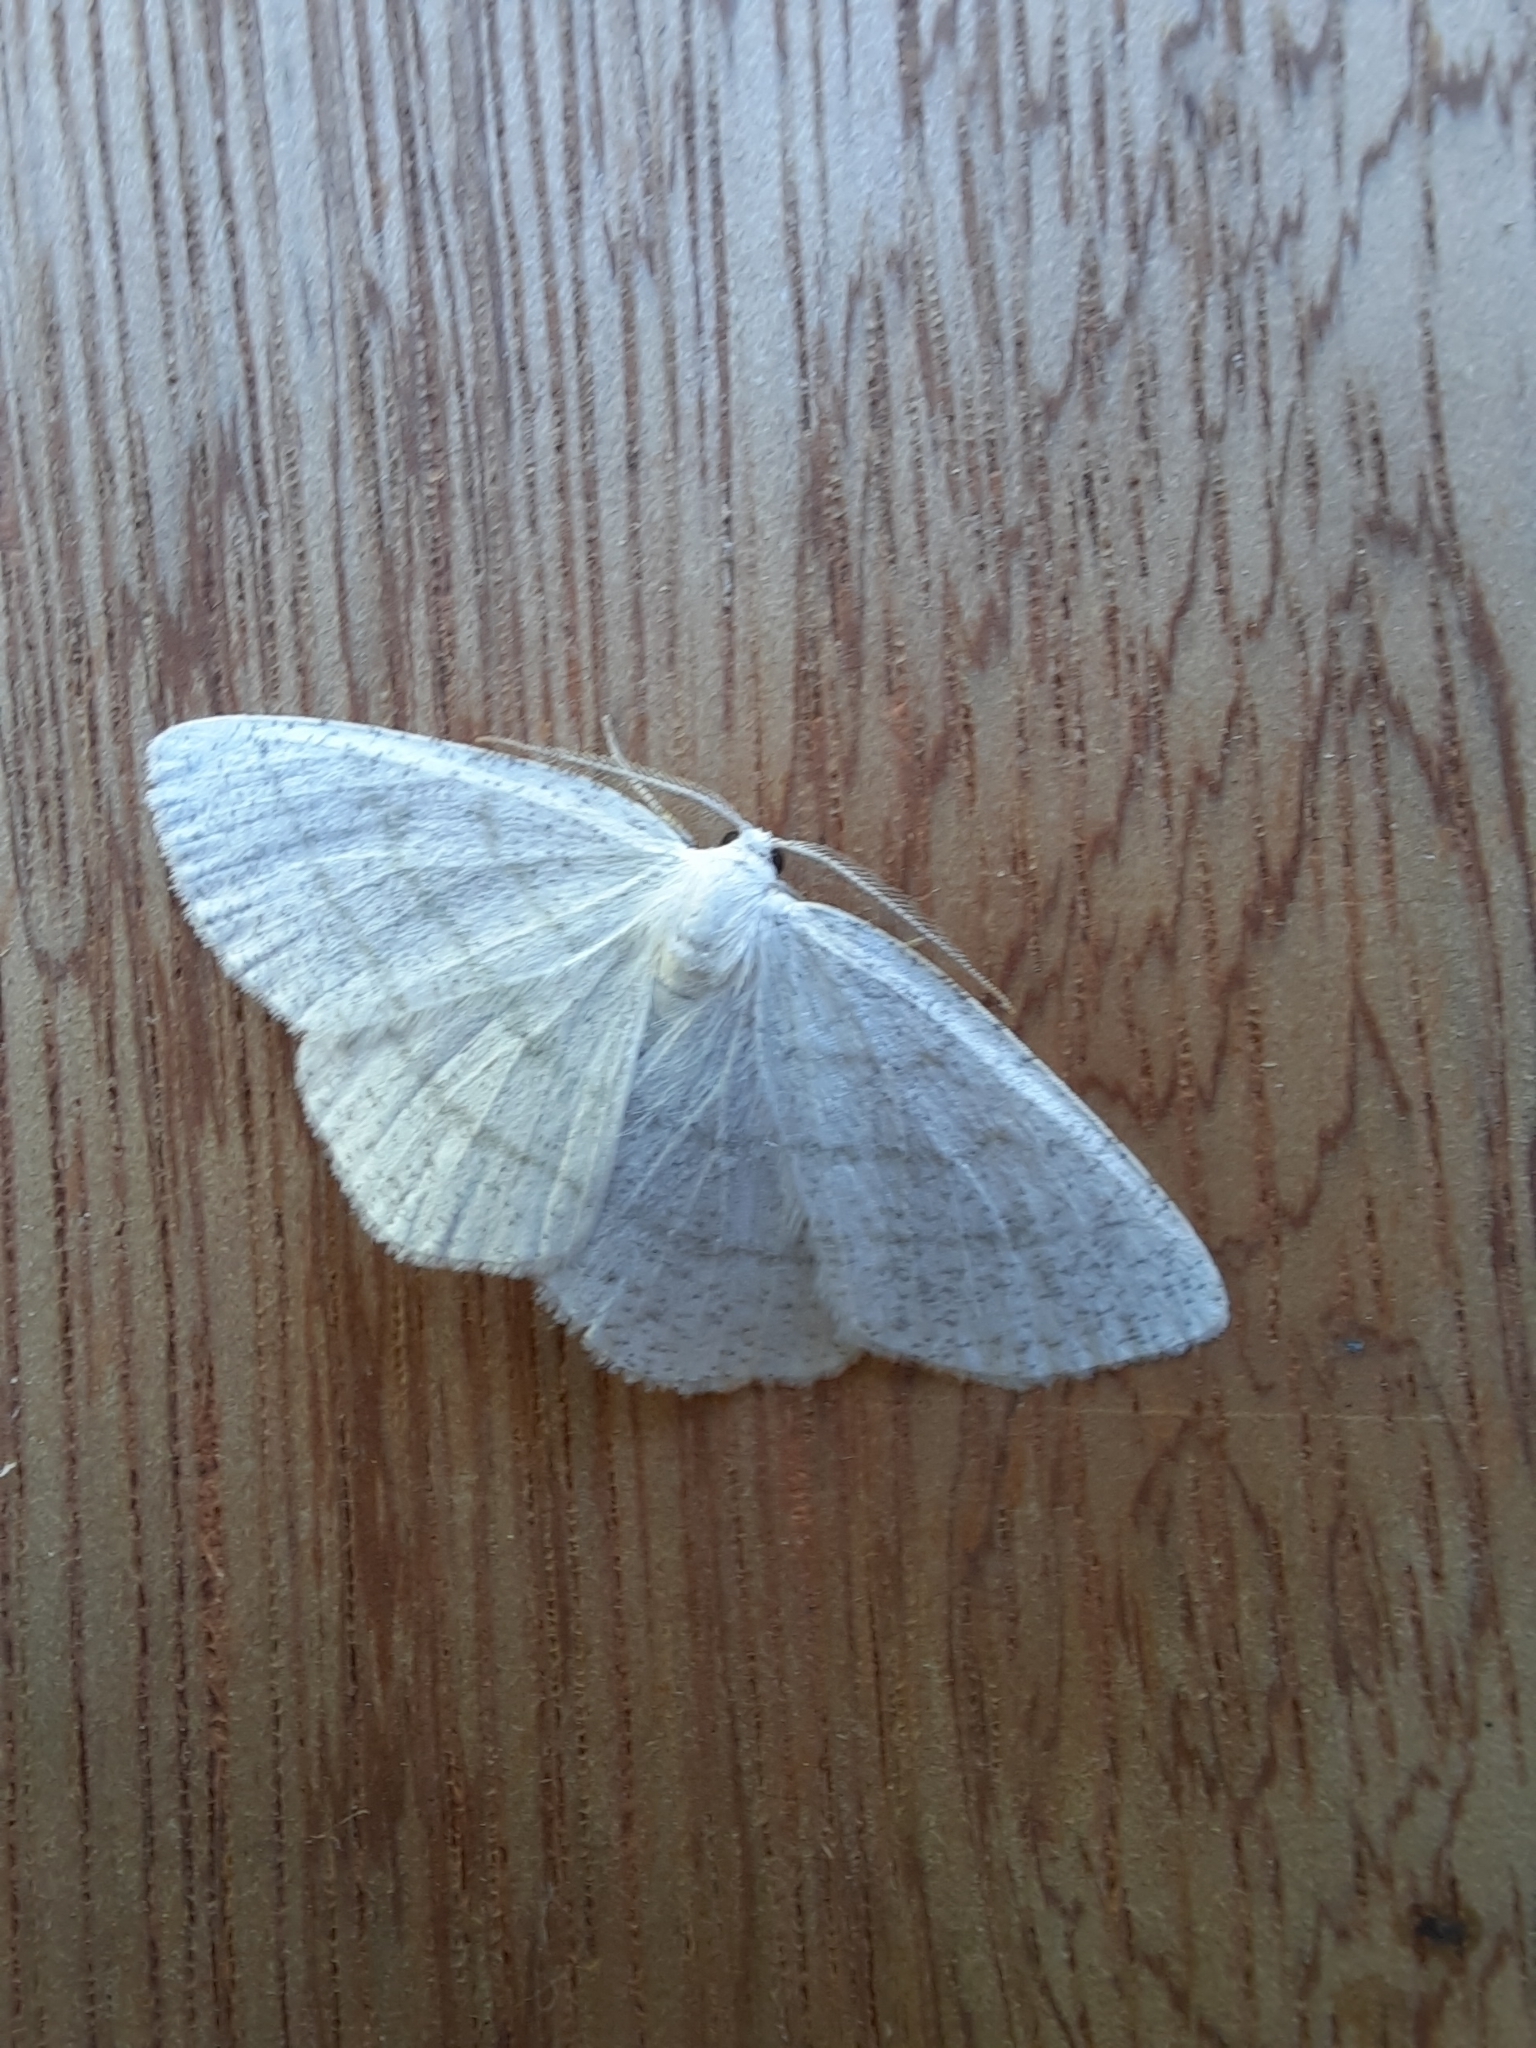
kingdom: Animalia
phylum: Arthropoda
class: Insecta
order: Lepidoptera
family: Geometridae
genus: Cabera
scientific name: Cabera pusaria
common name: Common white wave
